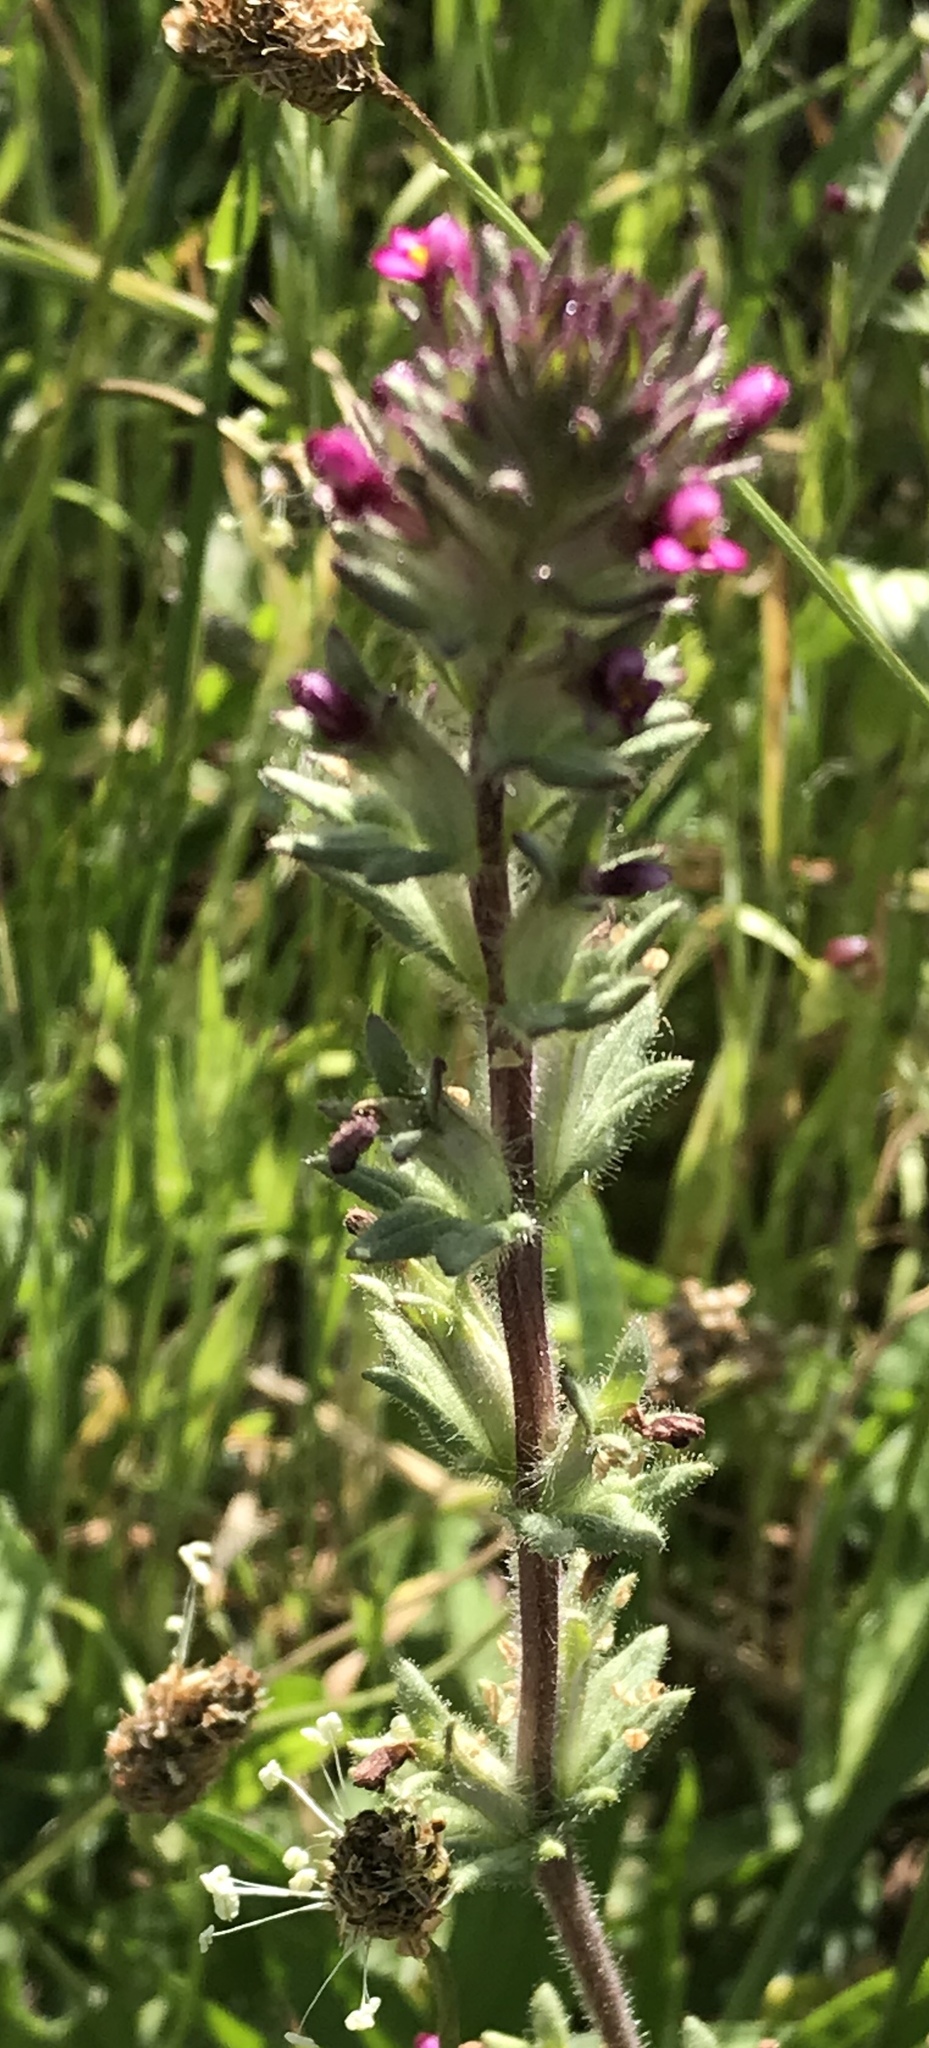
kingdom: Plantae
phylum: Tracheophyta
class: Magnoliopsida
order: Lamiales
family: Orobanchaceae
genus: Parentucellia
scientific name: Parentucellia latifolia
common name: Broadleaf glandweed
